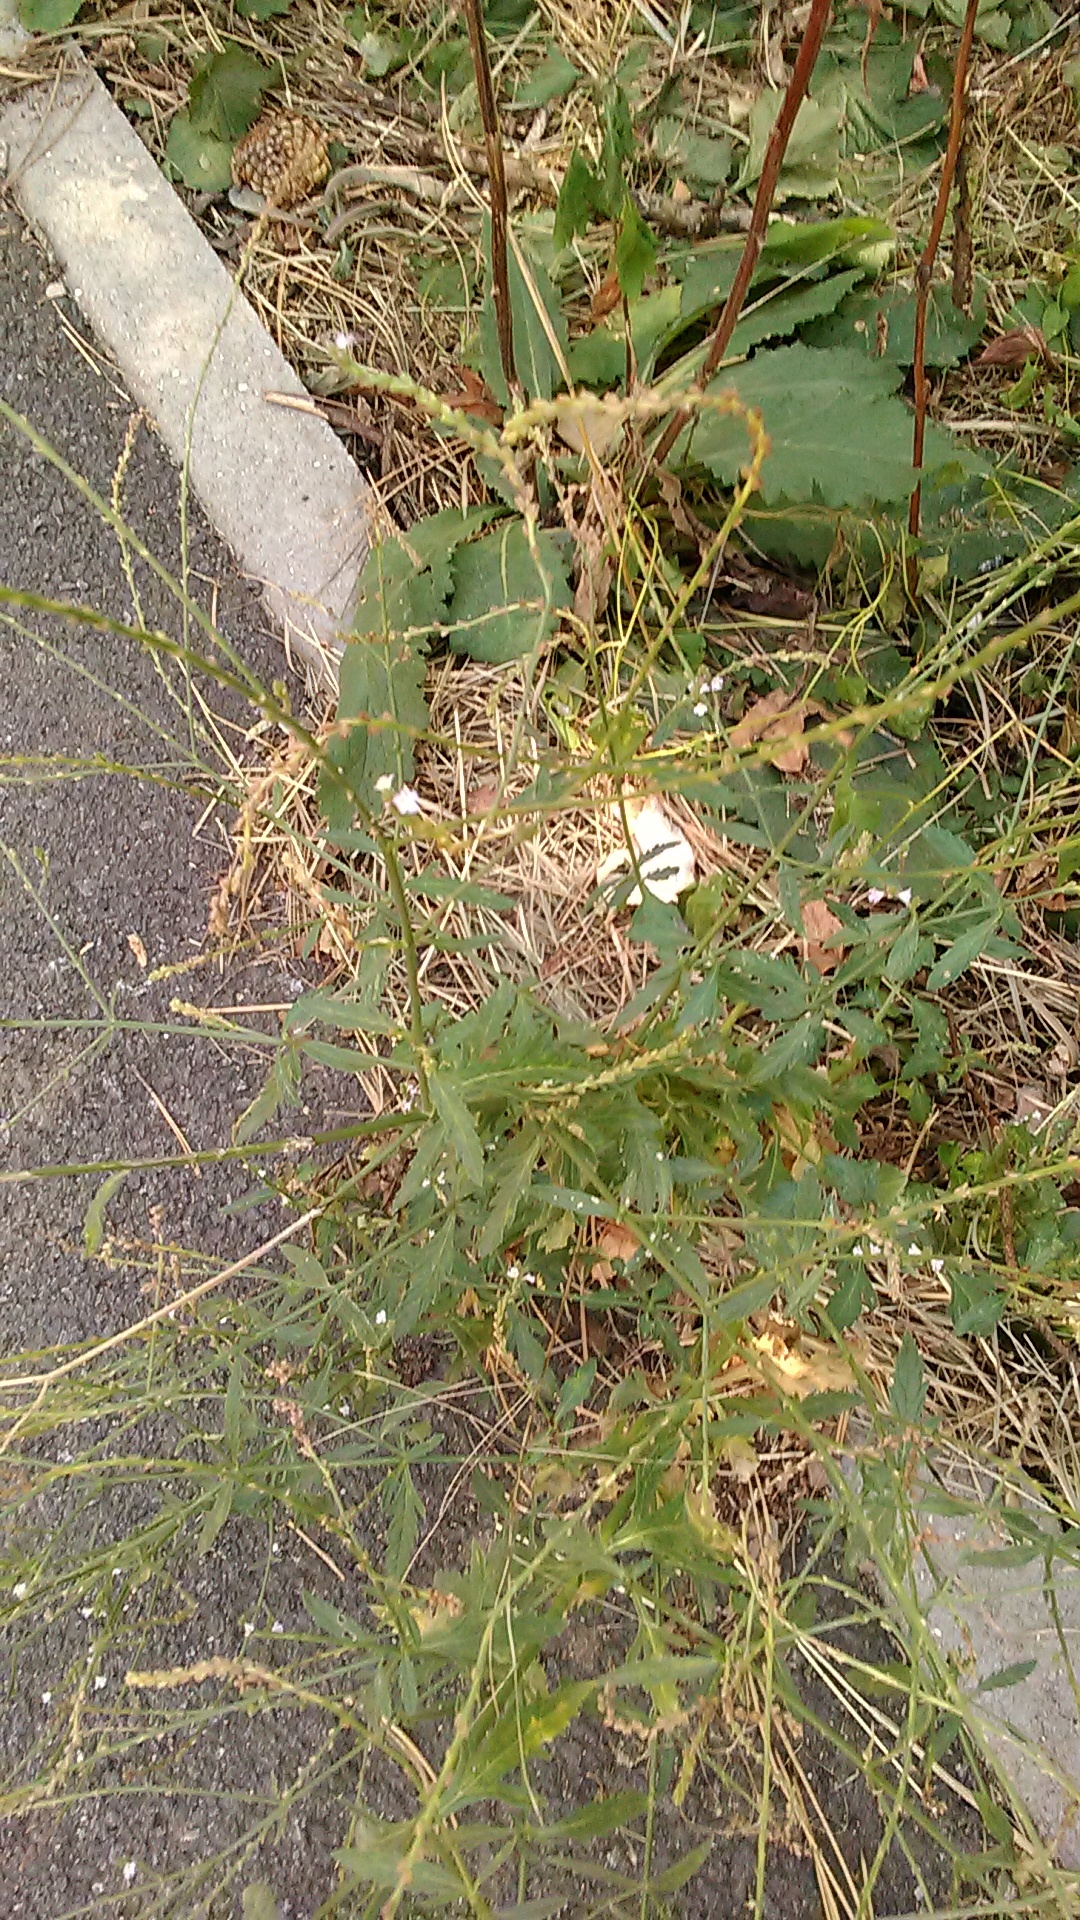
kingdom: Plantae
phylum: Tracheophyta
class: Magnoliopsida
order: Lamiales
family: Verbenaceae
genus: Verbena
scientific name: Verbena officinalis
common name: Vervain
